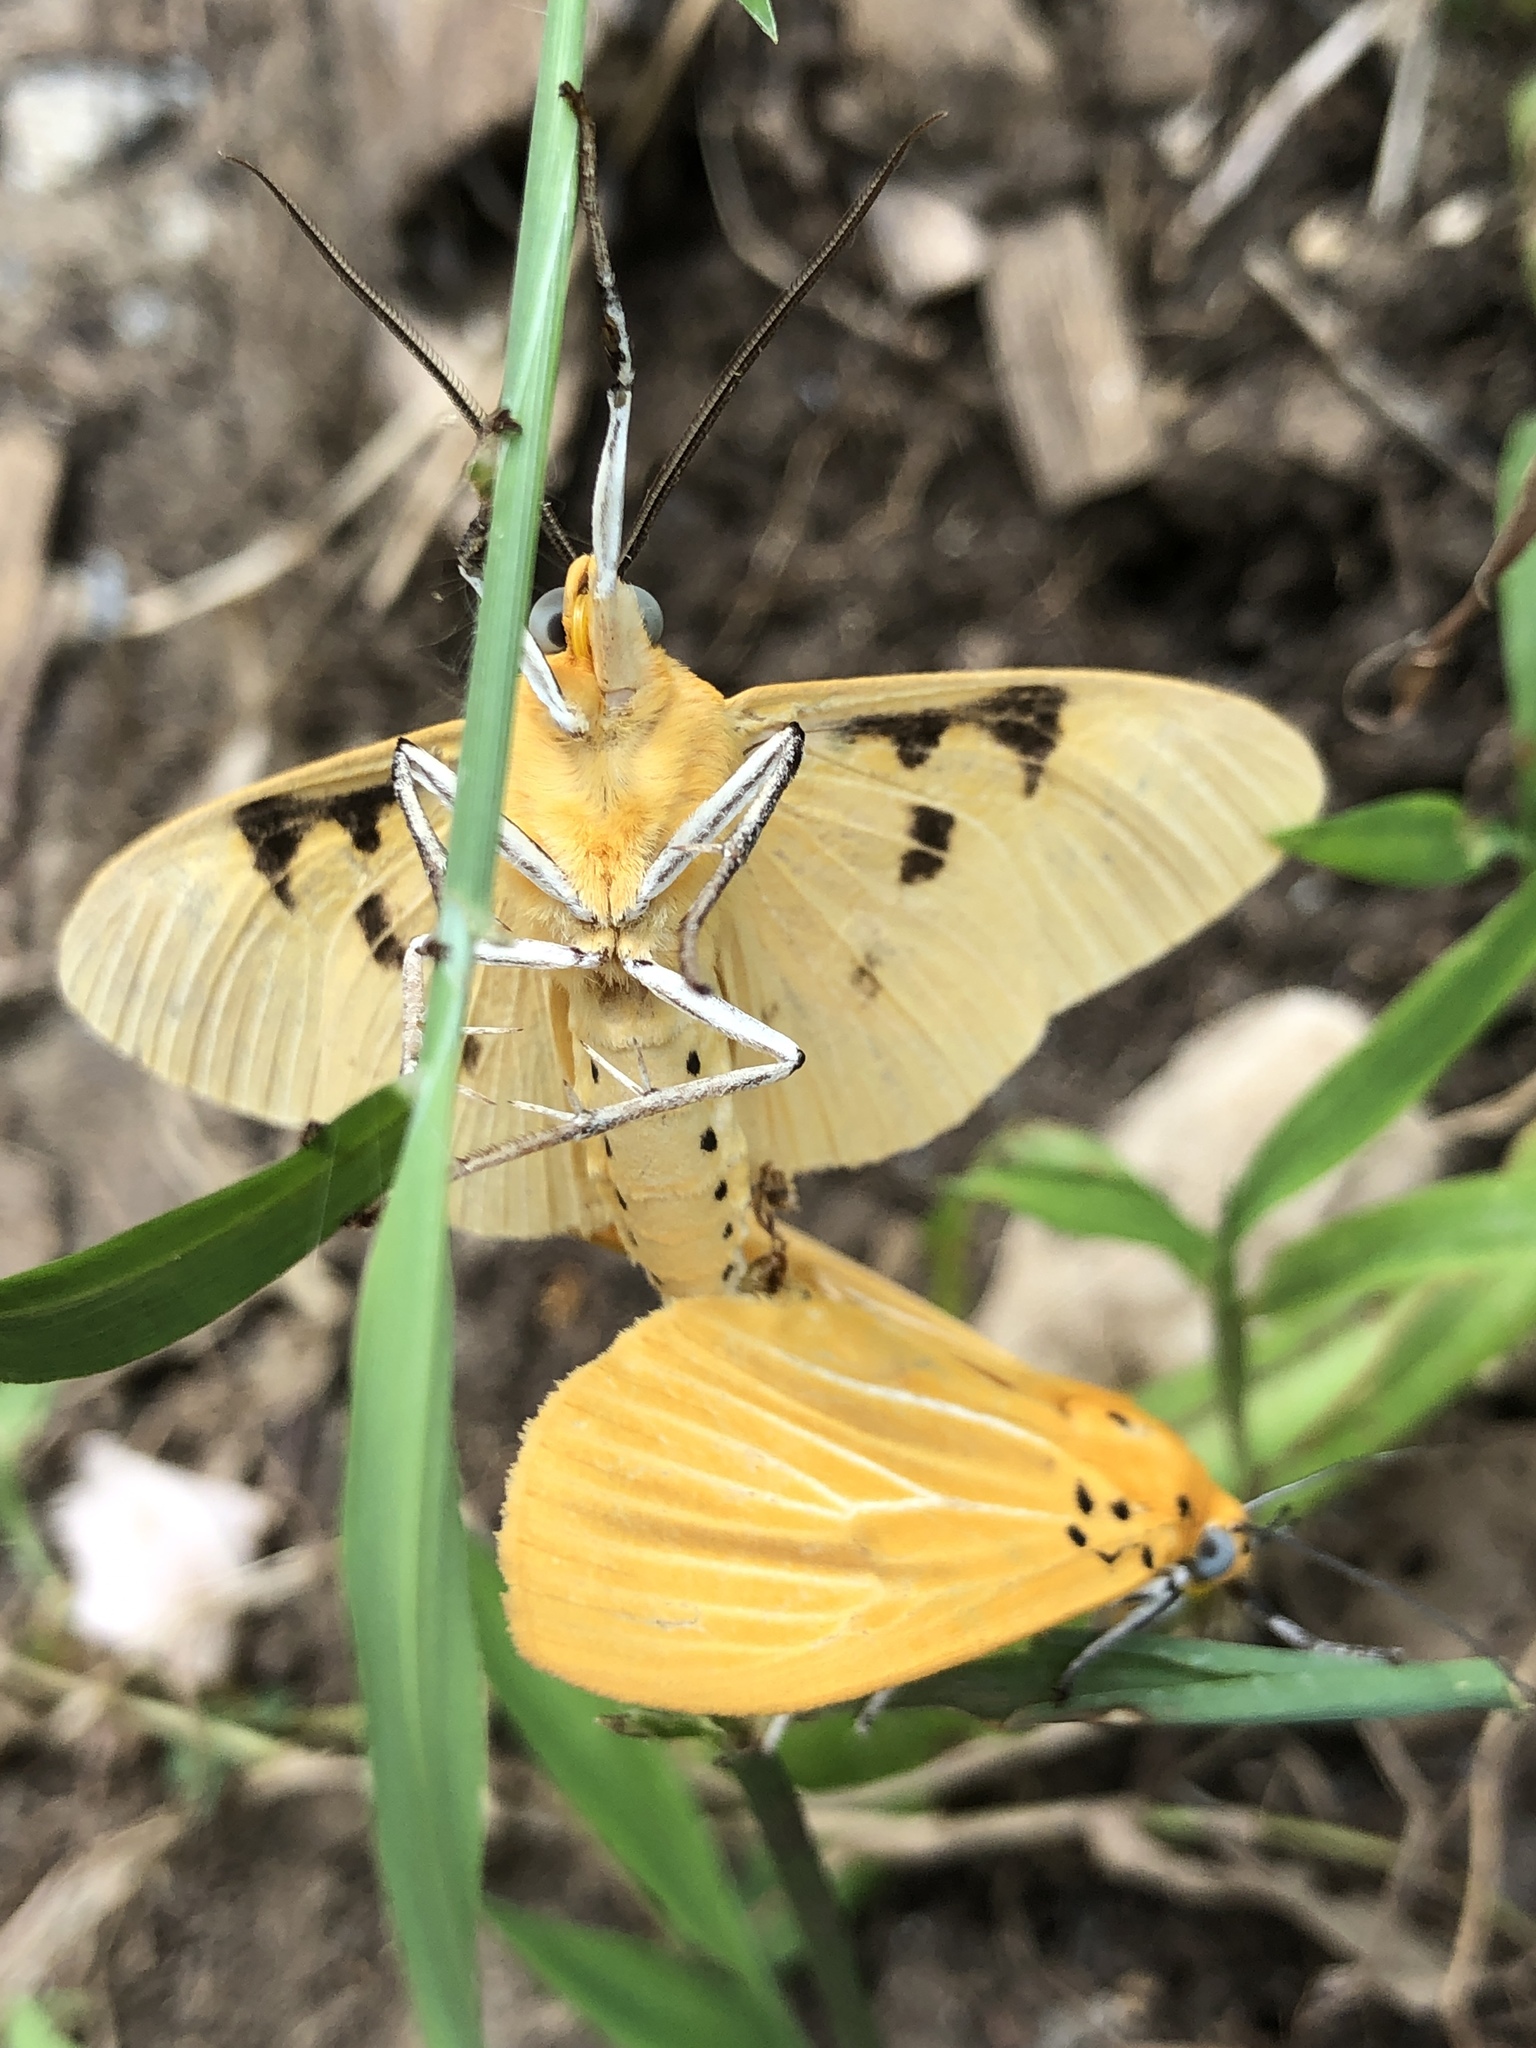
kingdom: Animalia
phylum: Arthropoda
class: Insecta
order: Lepidoptera
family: Erebidae
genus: Asota
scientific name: Asota egens
